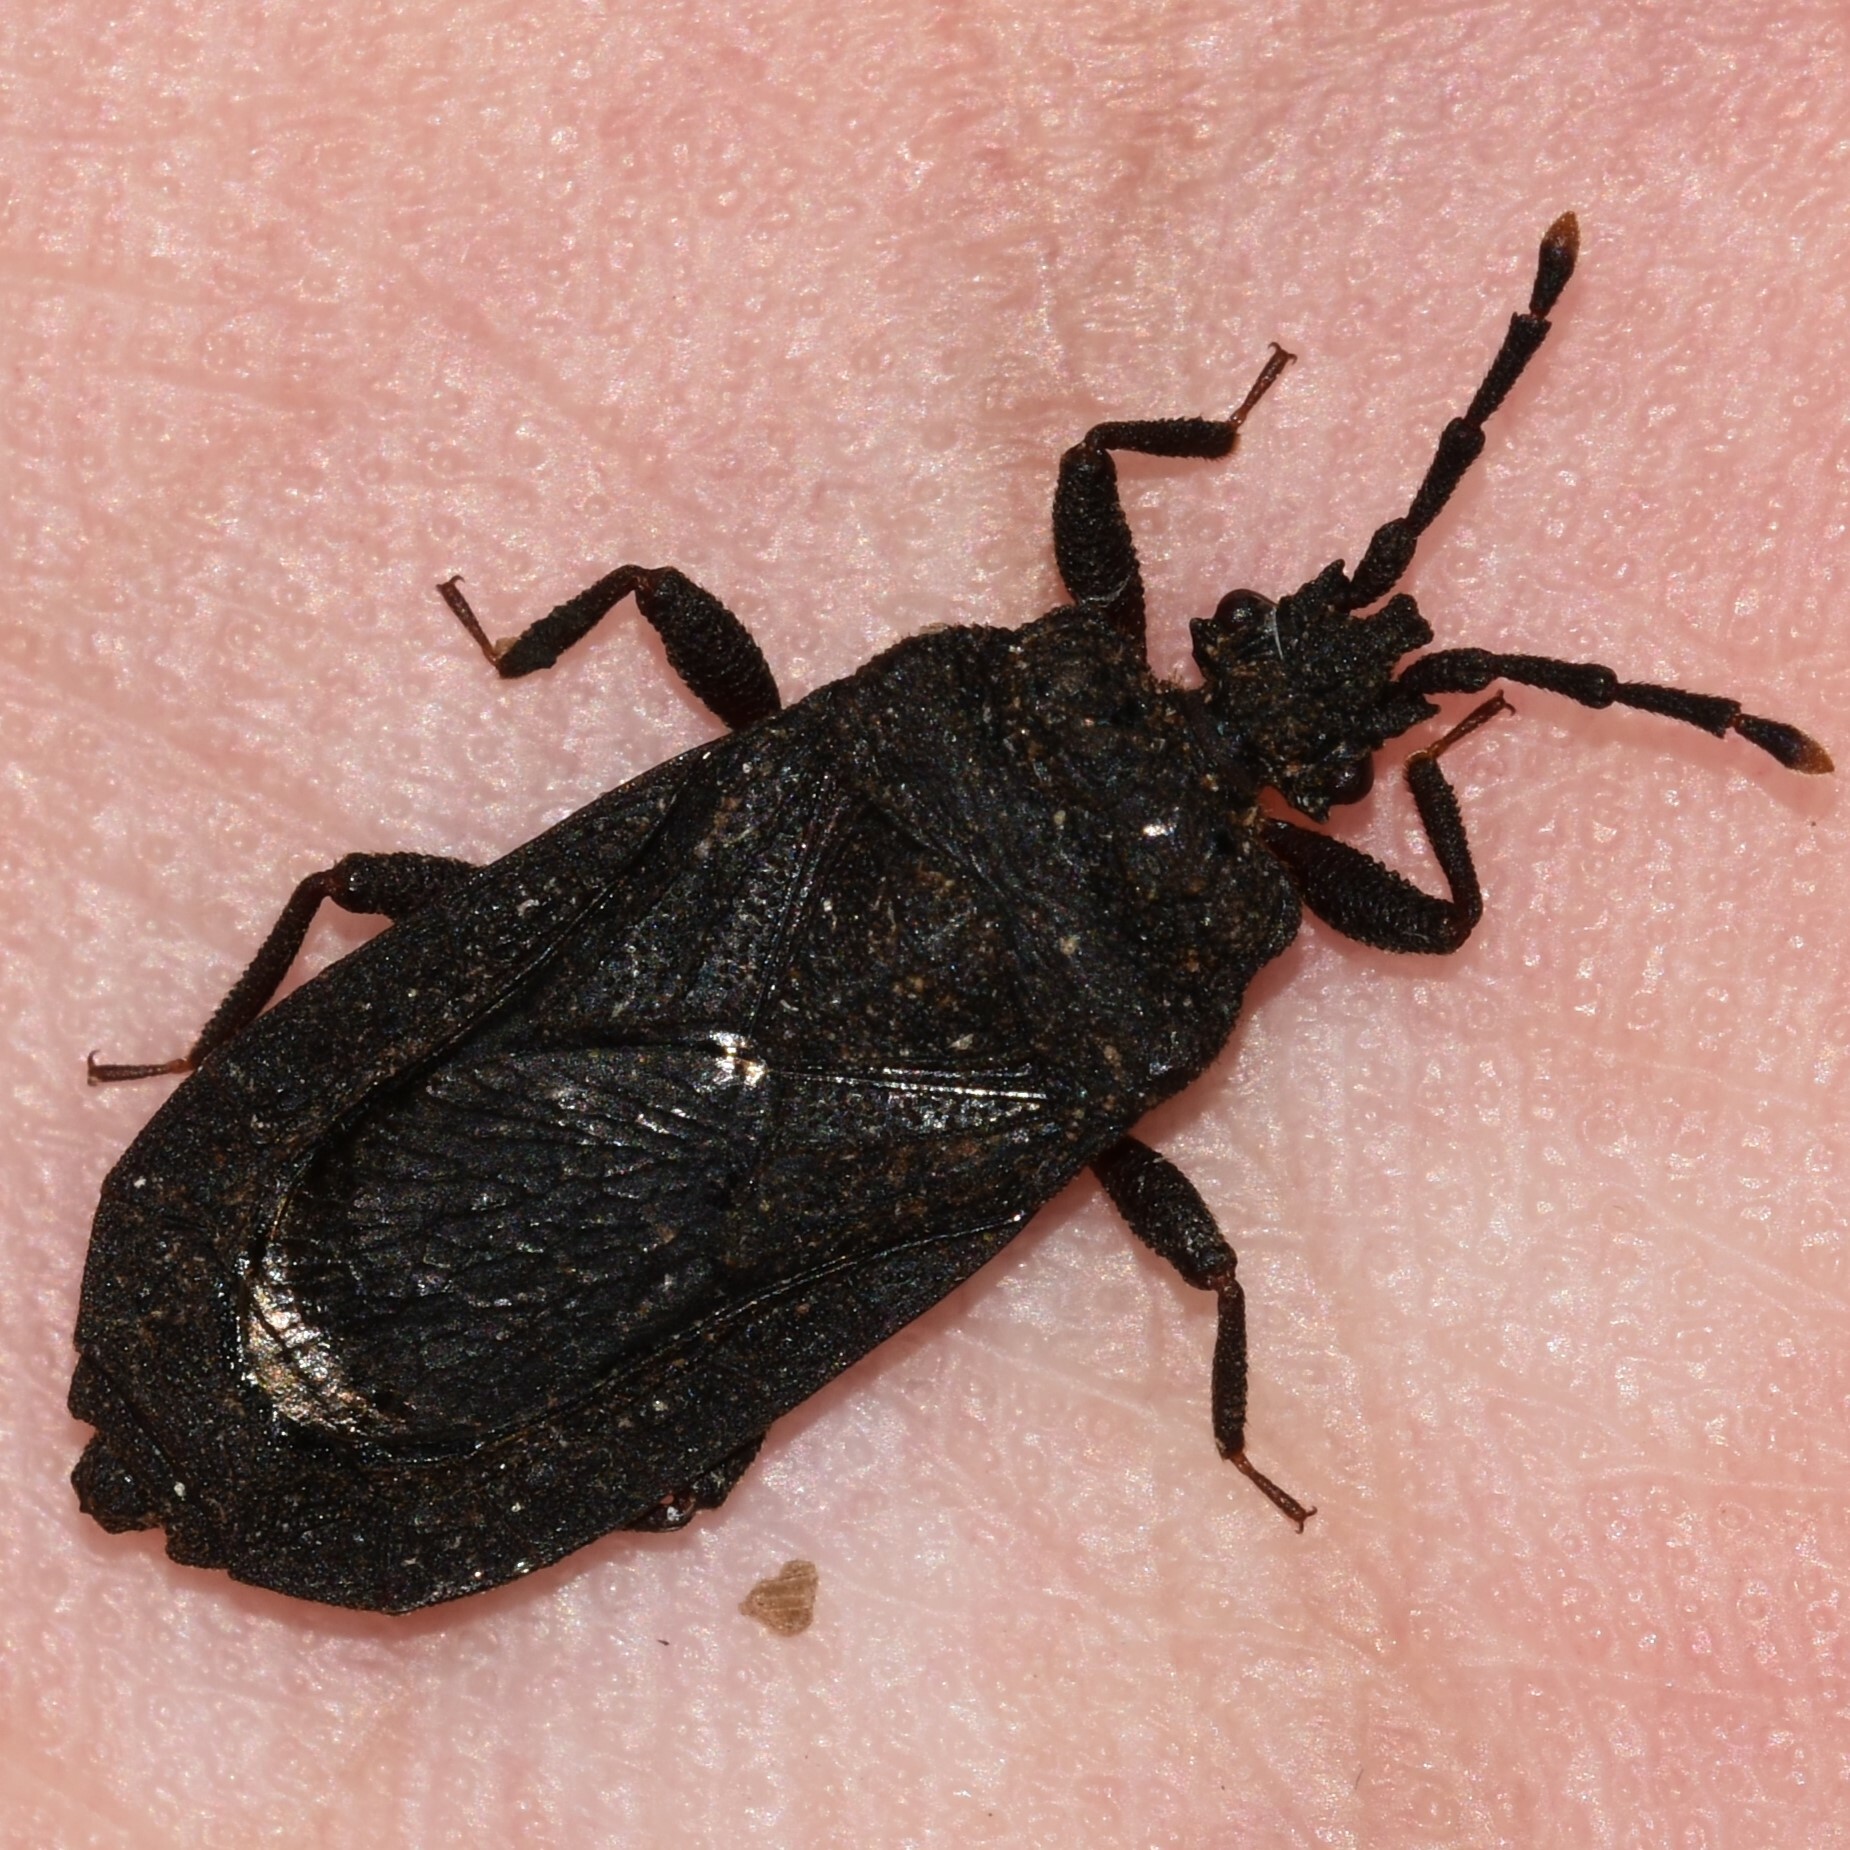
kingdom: Animalia
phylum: Arthropoda
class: Insecta
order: Hemiptera
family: Aradidae
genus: Brachyrhynchus
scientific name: Brachyrhynchus membranaceus
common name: Aradid flat bug
